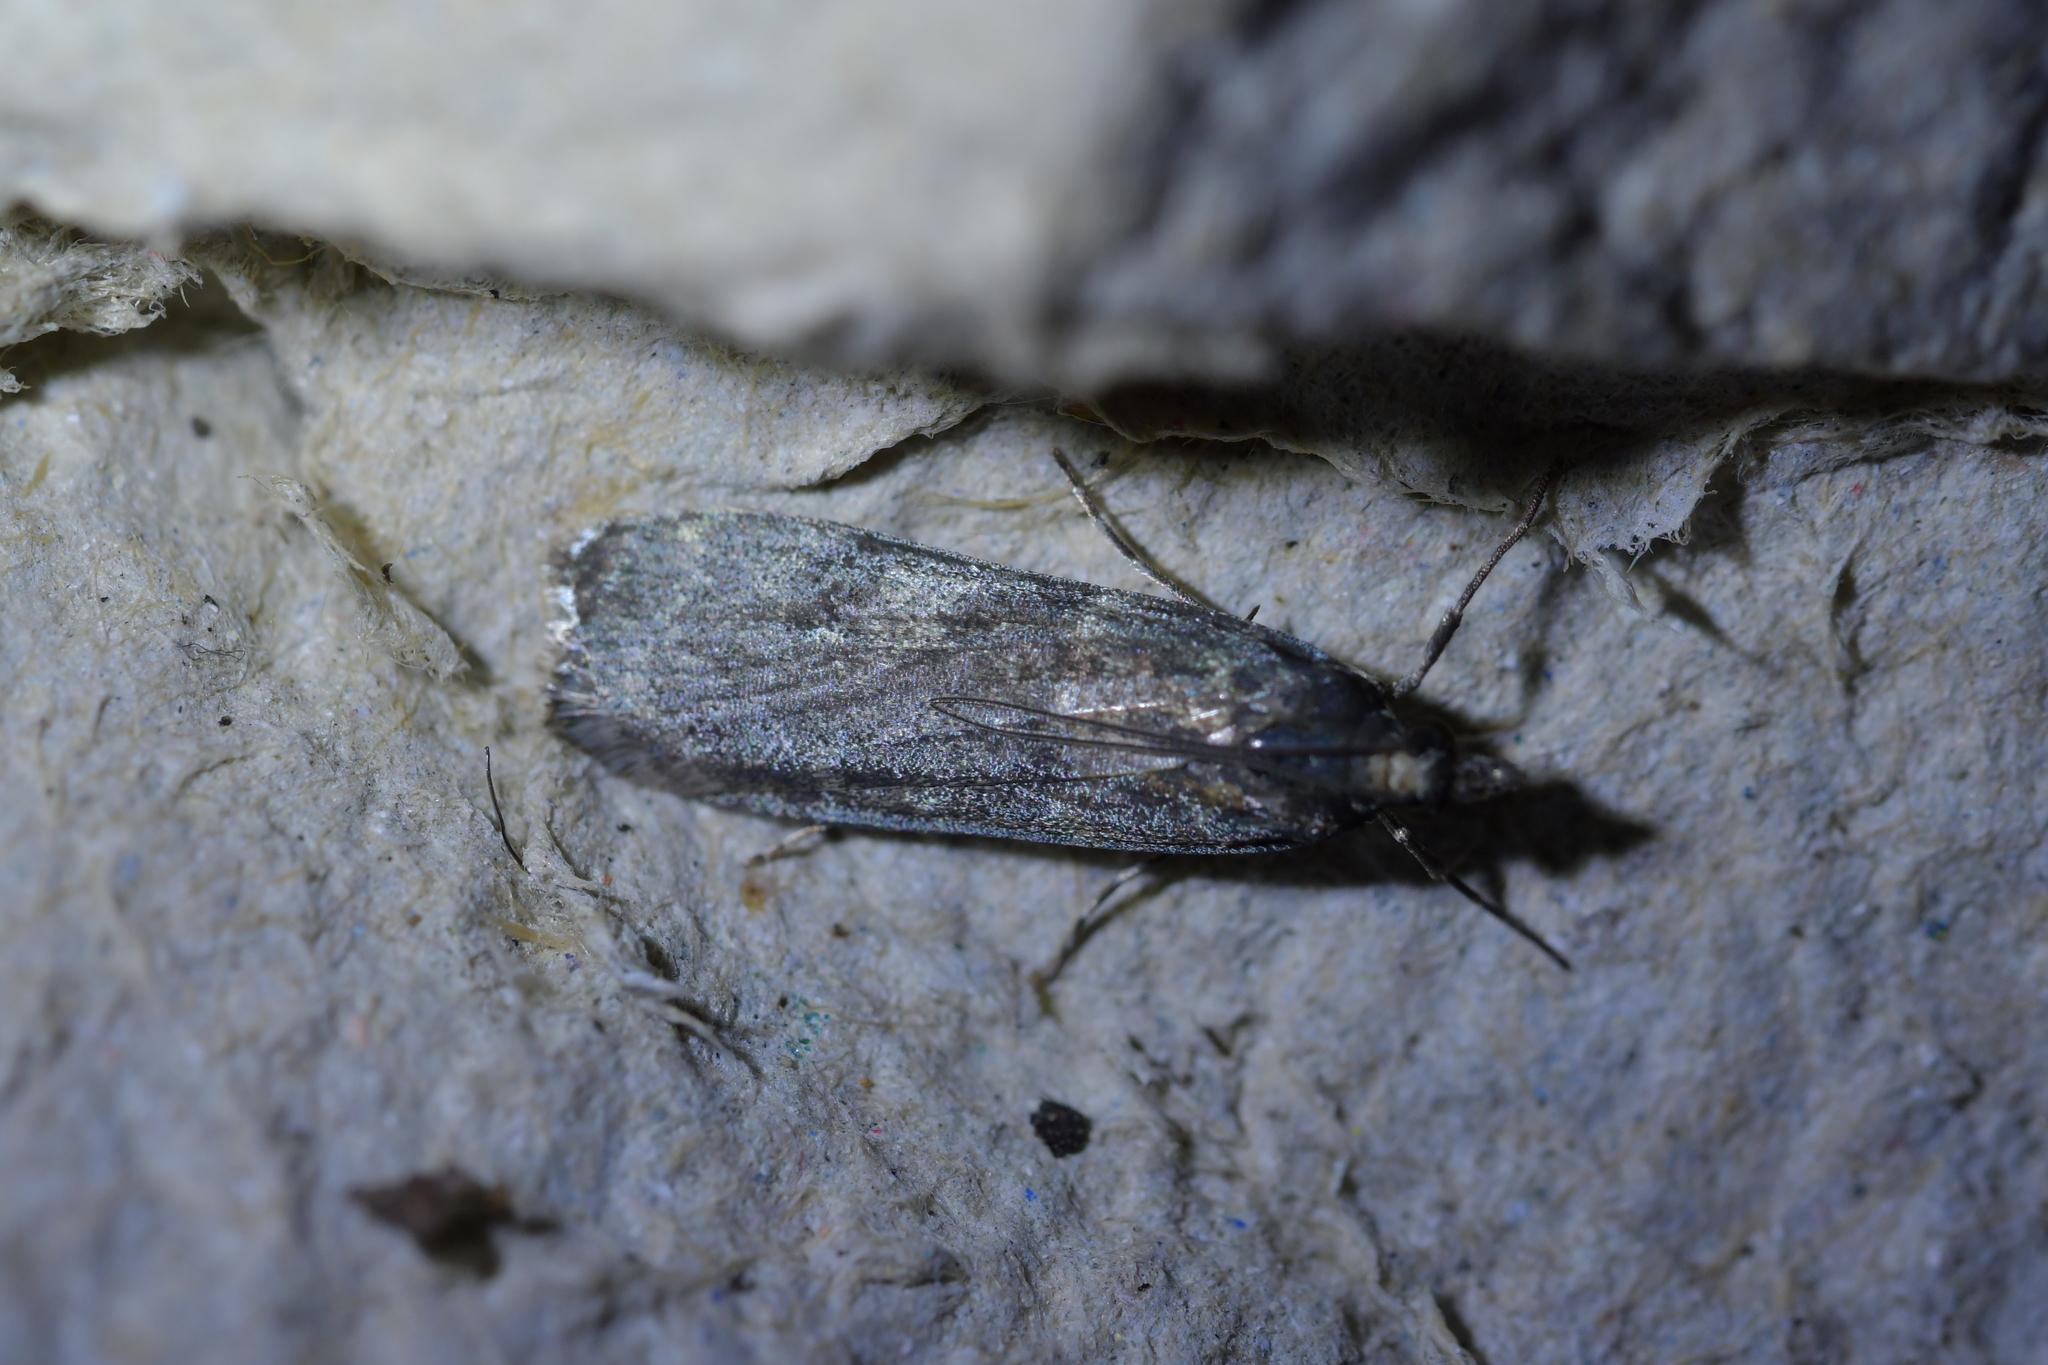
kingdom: Animalia
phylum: Arthropoda
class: Insecta
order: Lepidoptera
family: Crambidae
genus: Eudonia
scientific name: Eudonia cataxesta
